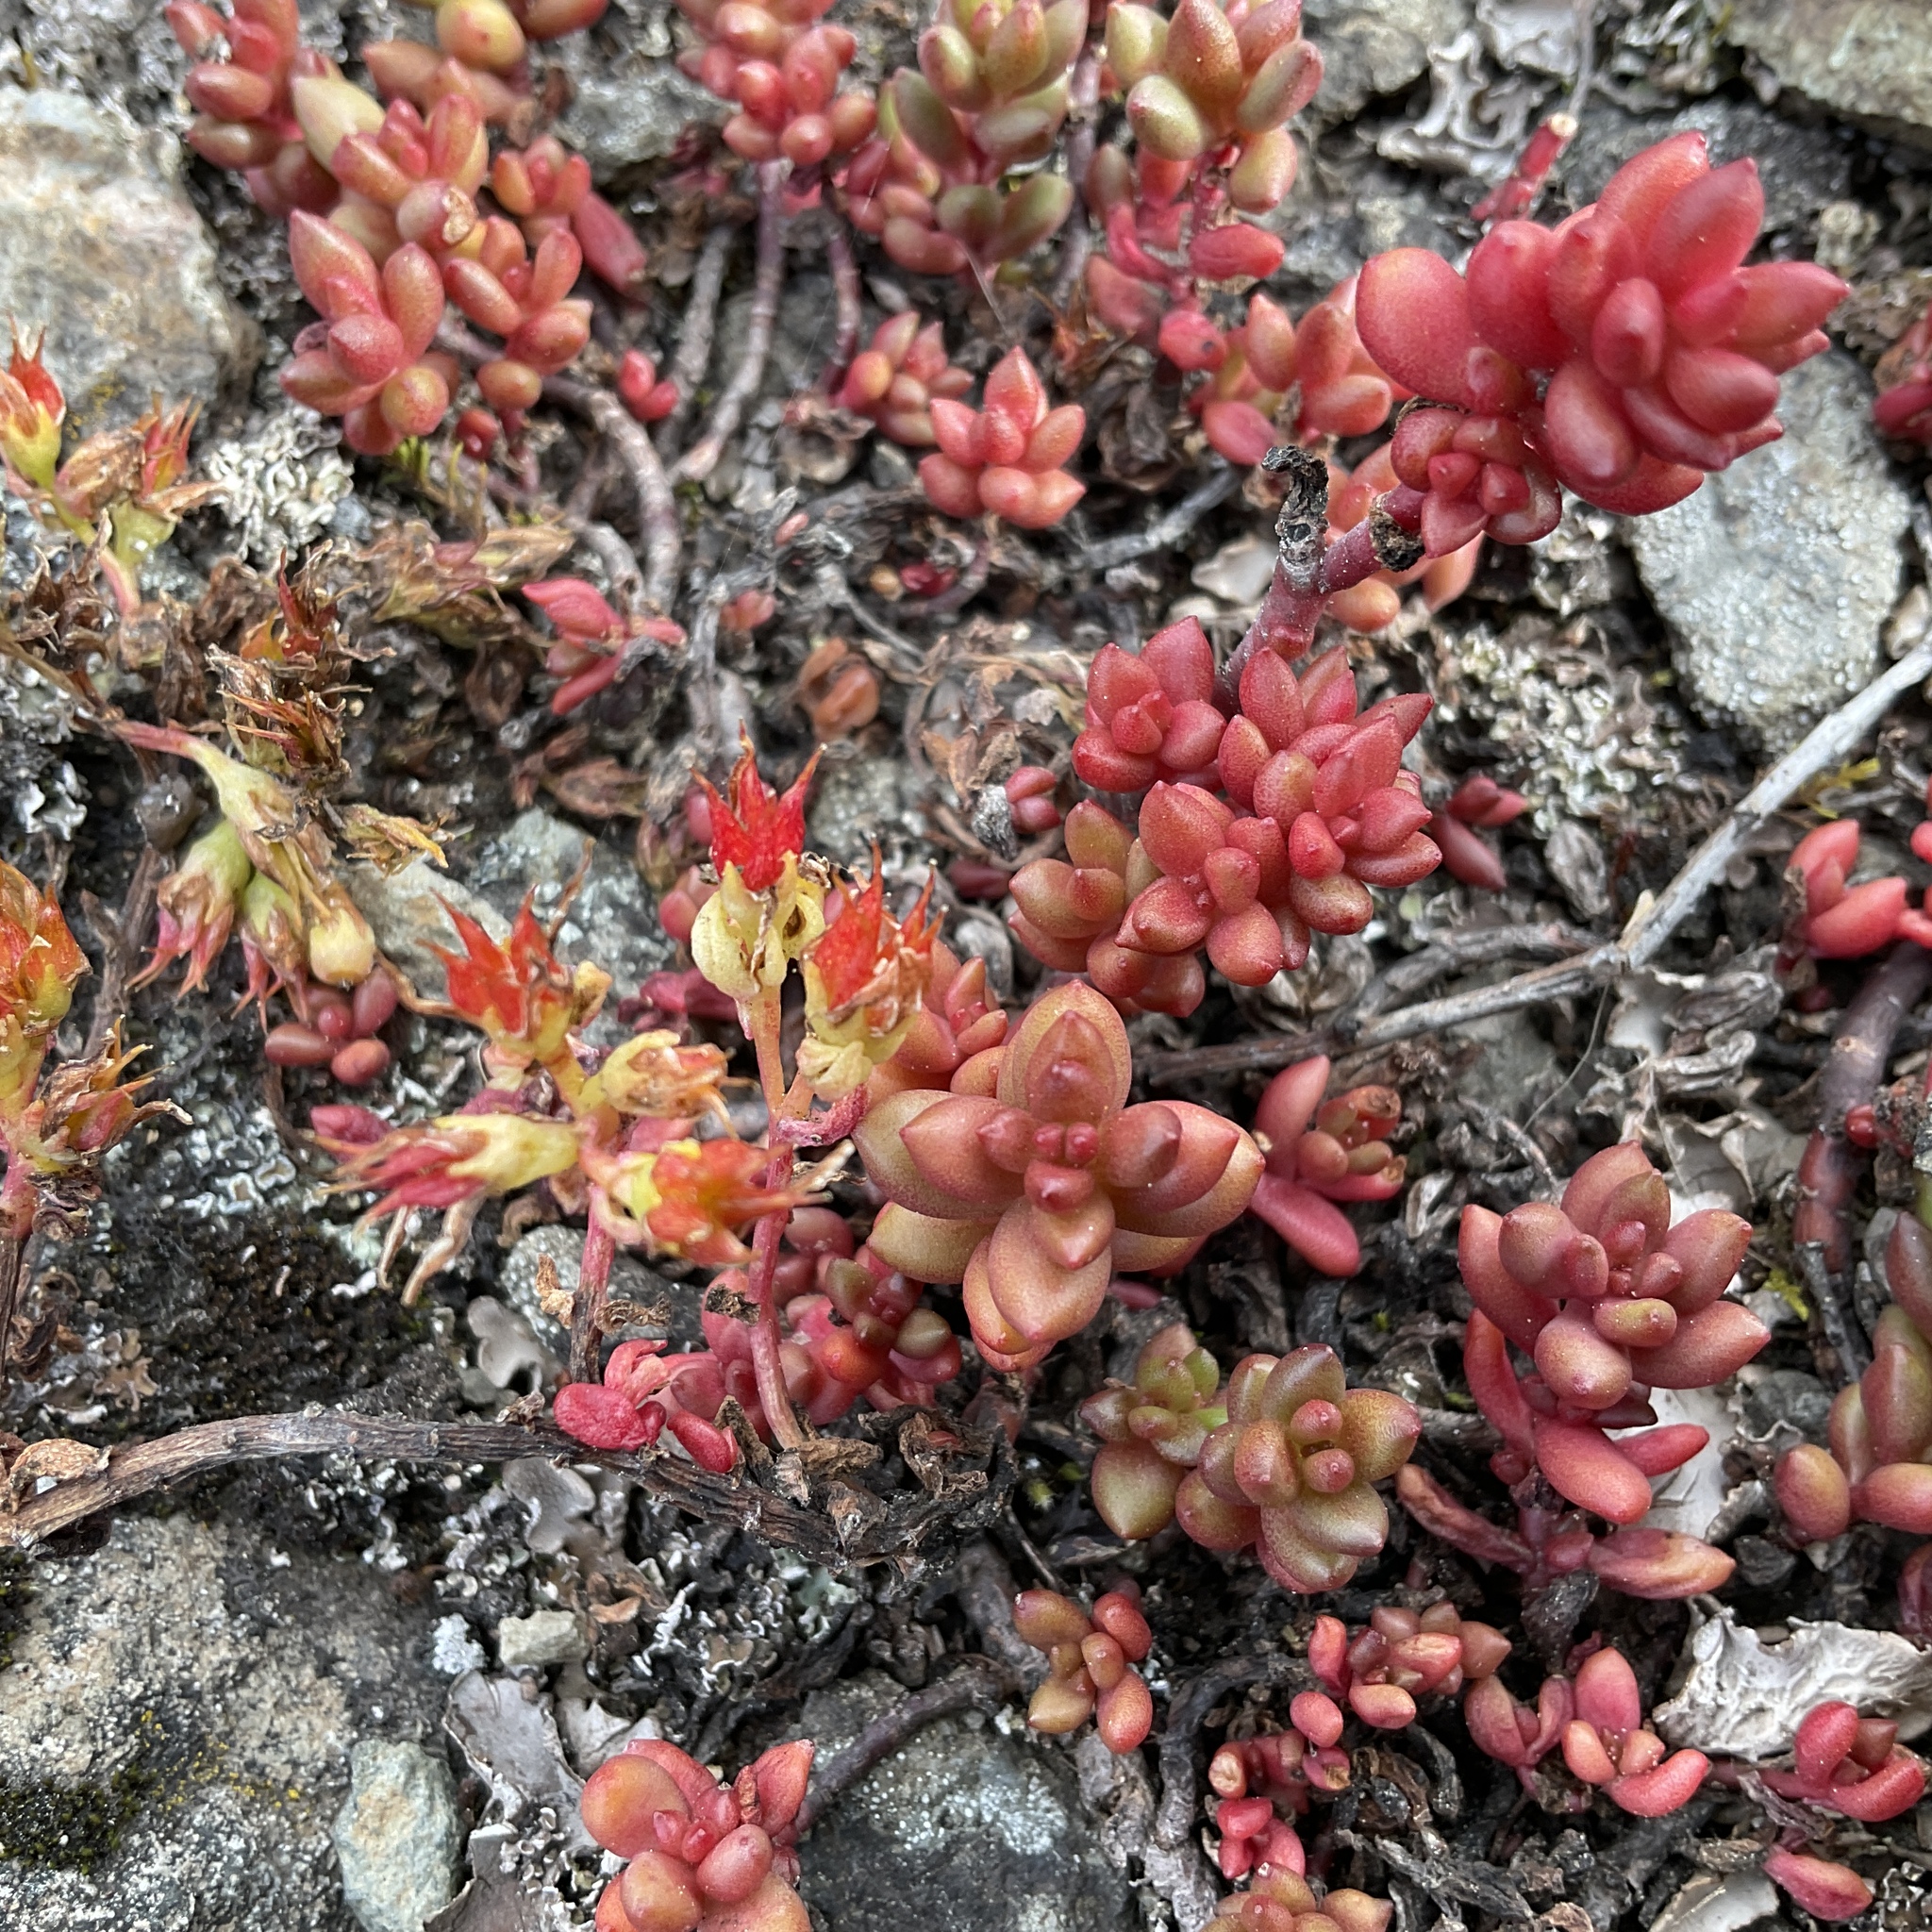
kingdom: Plantae
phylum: Tracheophyta
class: Magnoliopsida
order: Saxifragales
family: Crassulaceae
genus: Sedum
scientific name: Sedum divergens
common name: Cascade stonecrop
